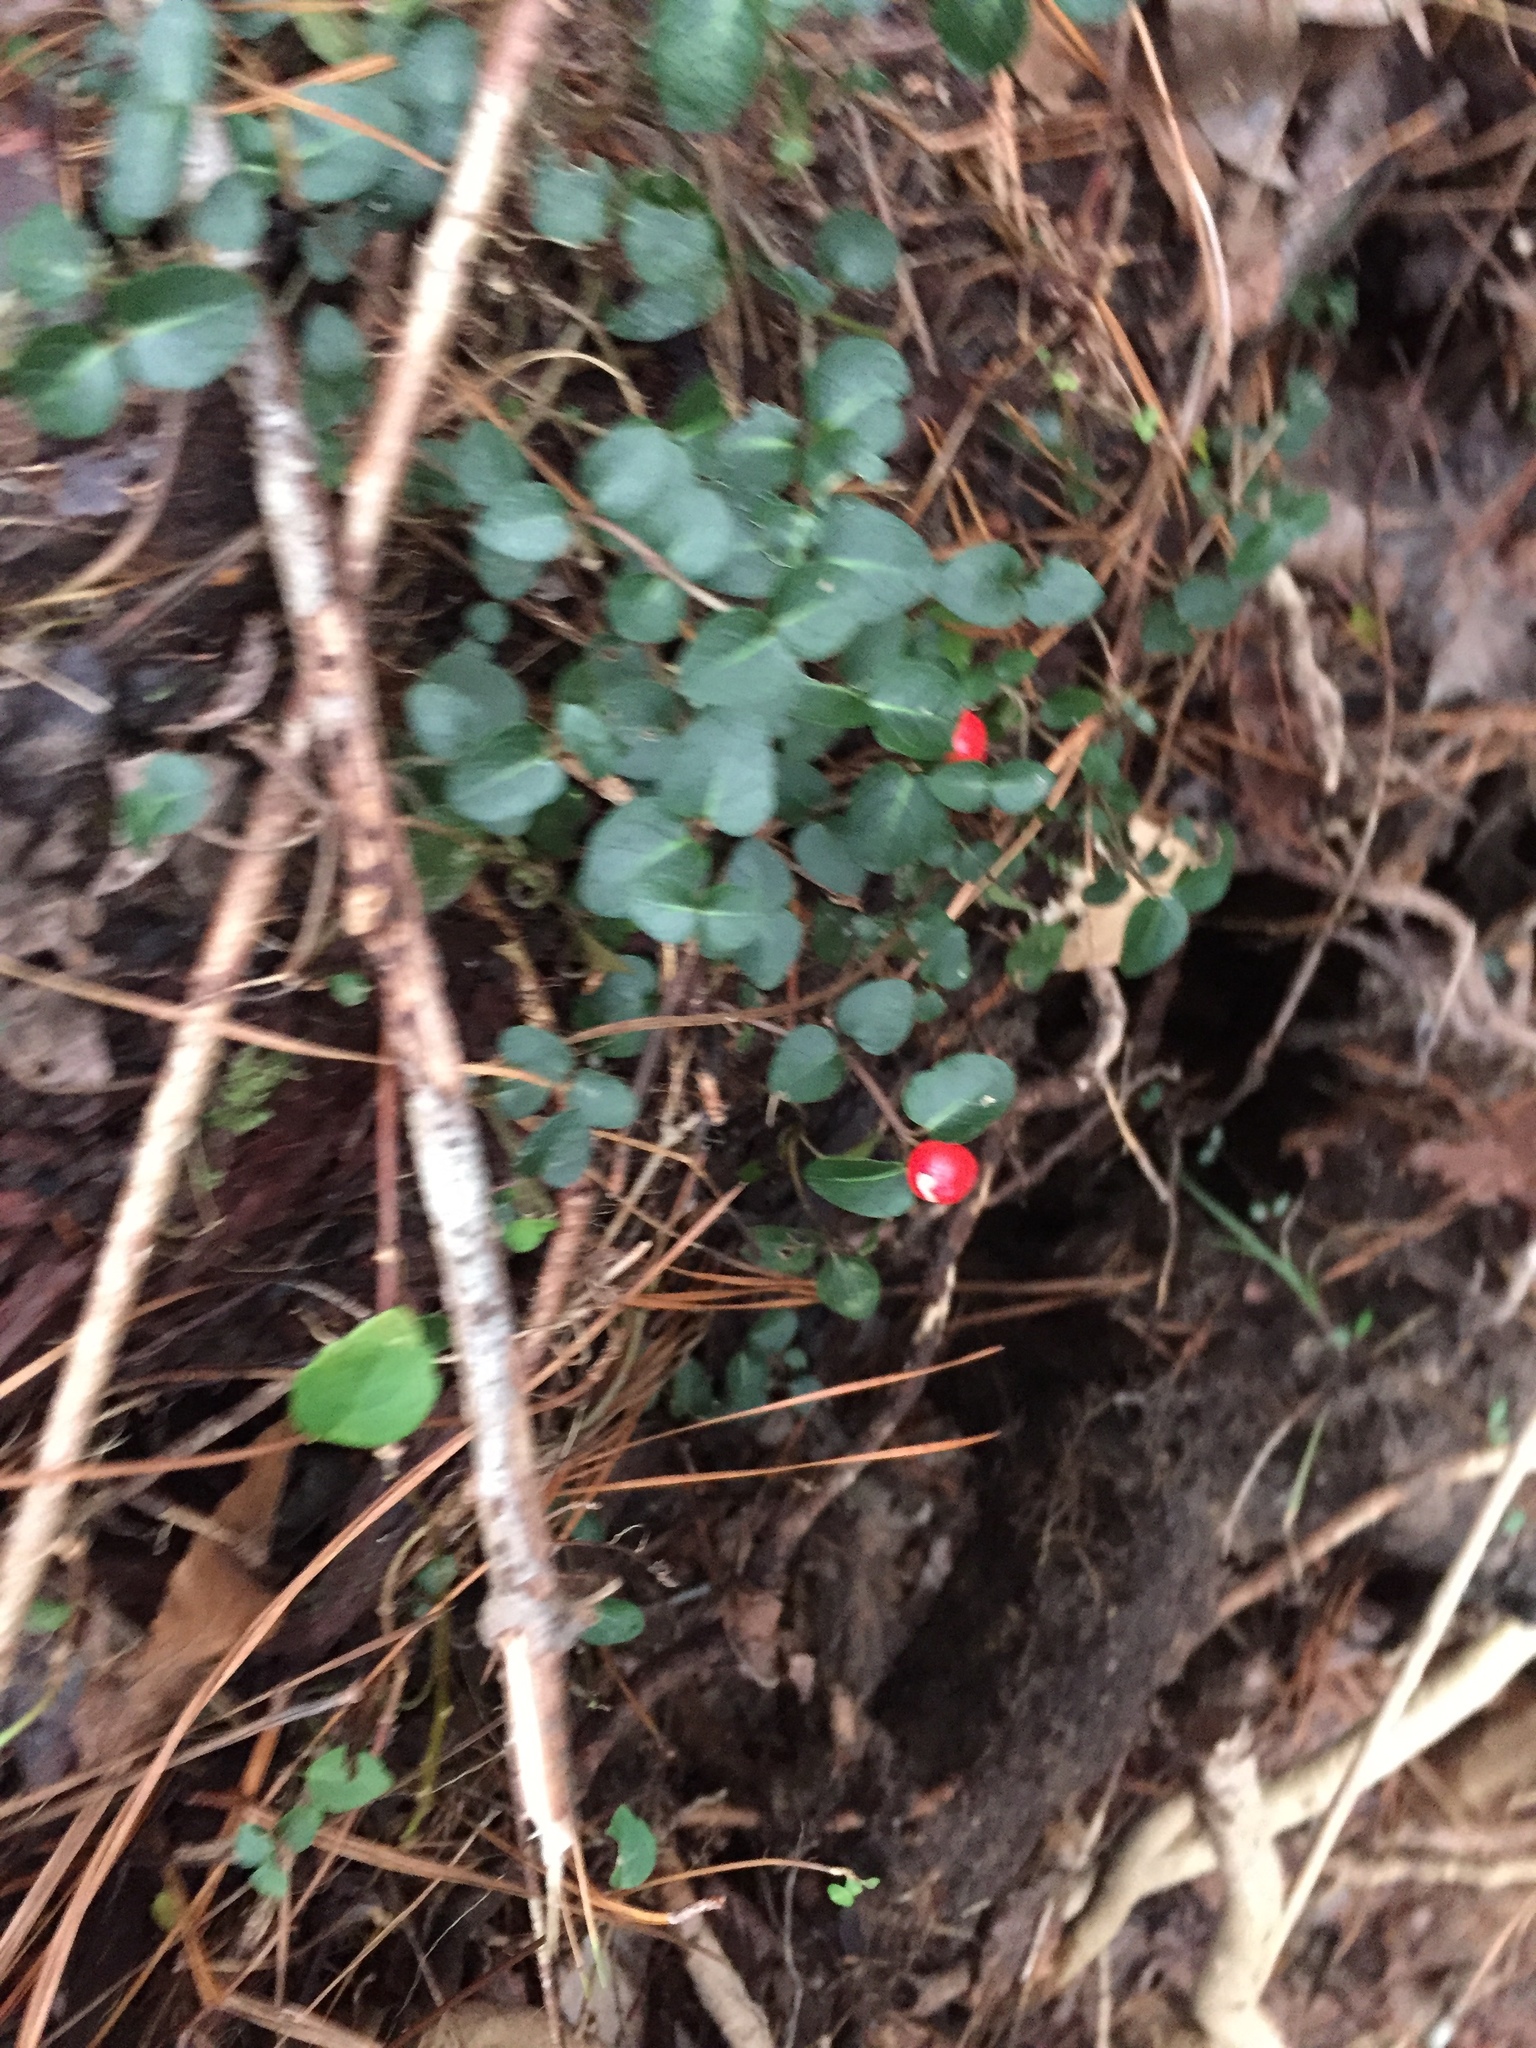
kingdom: Plantae
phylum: Tracheophyta
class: Magnoliopsida
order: Gentianales
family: Rubiaceae
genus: Mitchella
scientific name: Mitchella repens
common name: Partridge-berry
